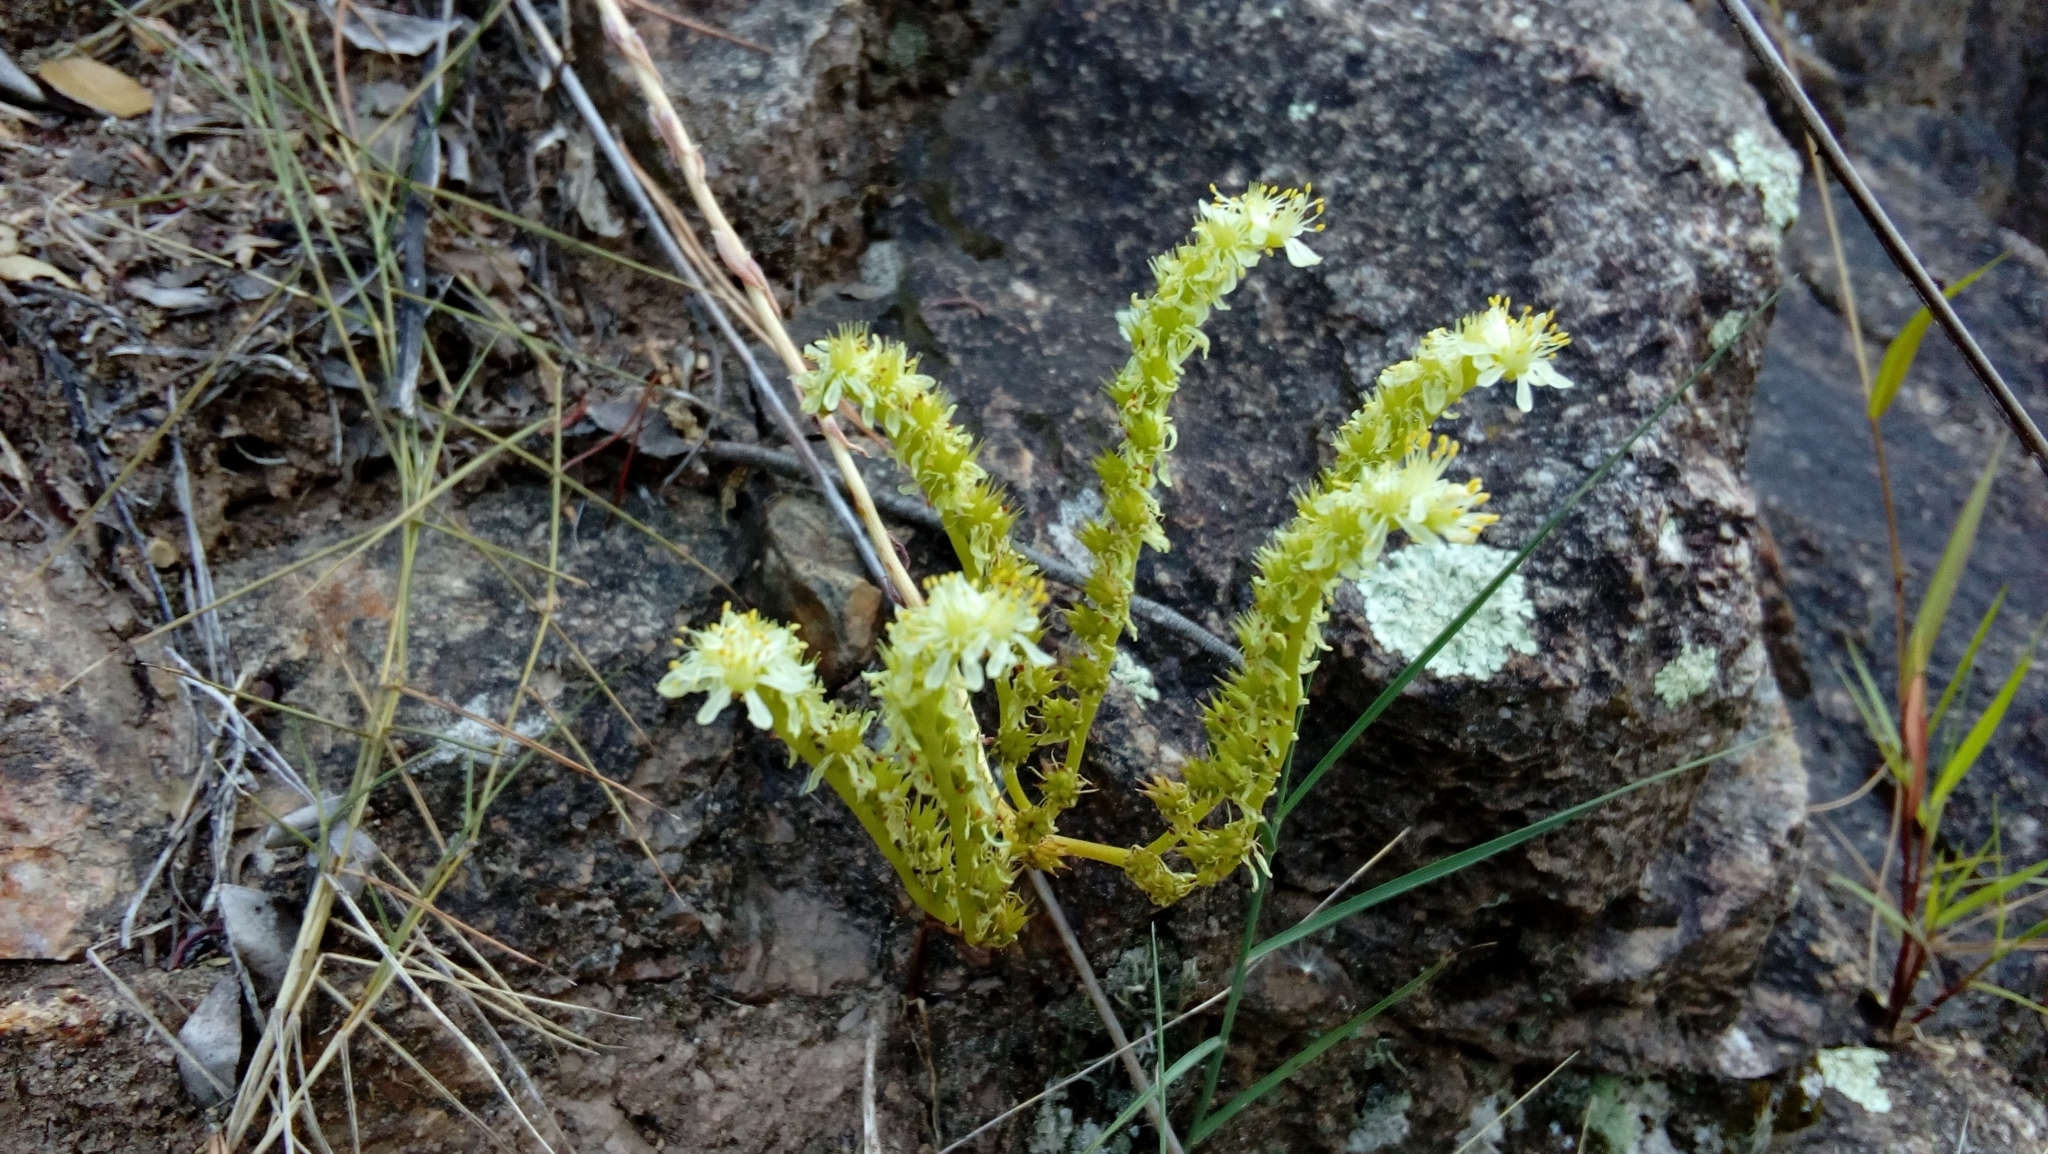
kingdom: Plantae
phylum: Tracheophyta
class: Magnoliopsida
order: Saxifragales
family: Crassulaceae
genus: Petrosedum
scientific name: Petrosedum sediforme
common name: Pale stonecrop
